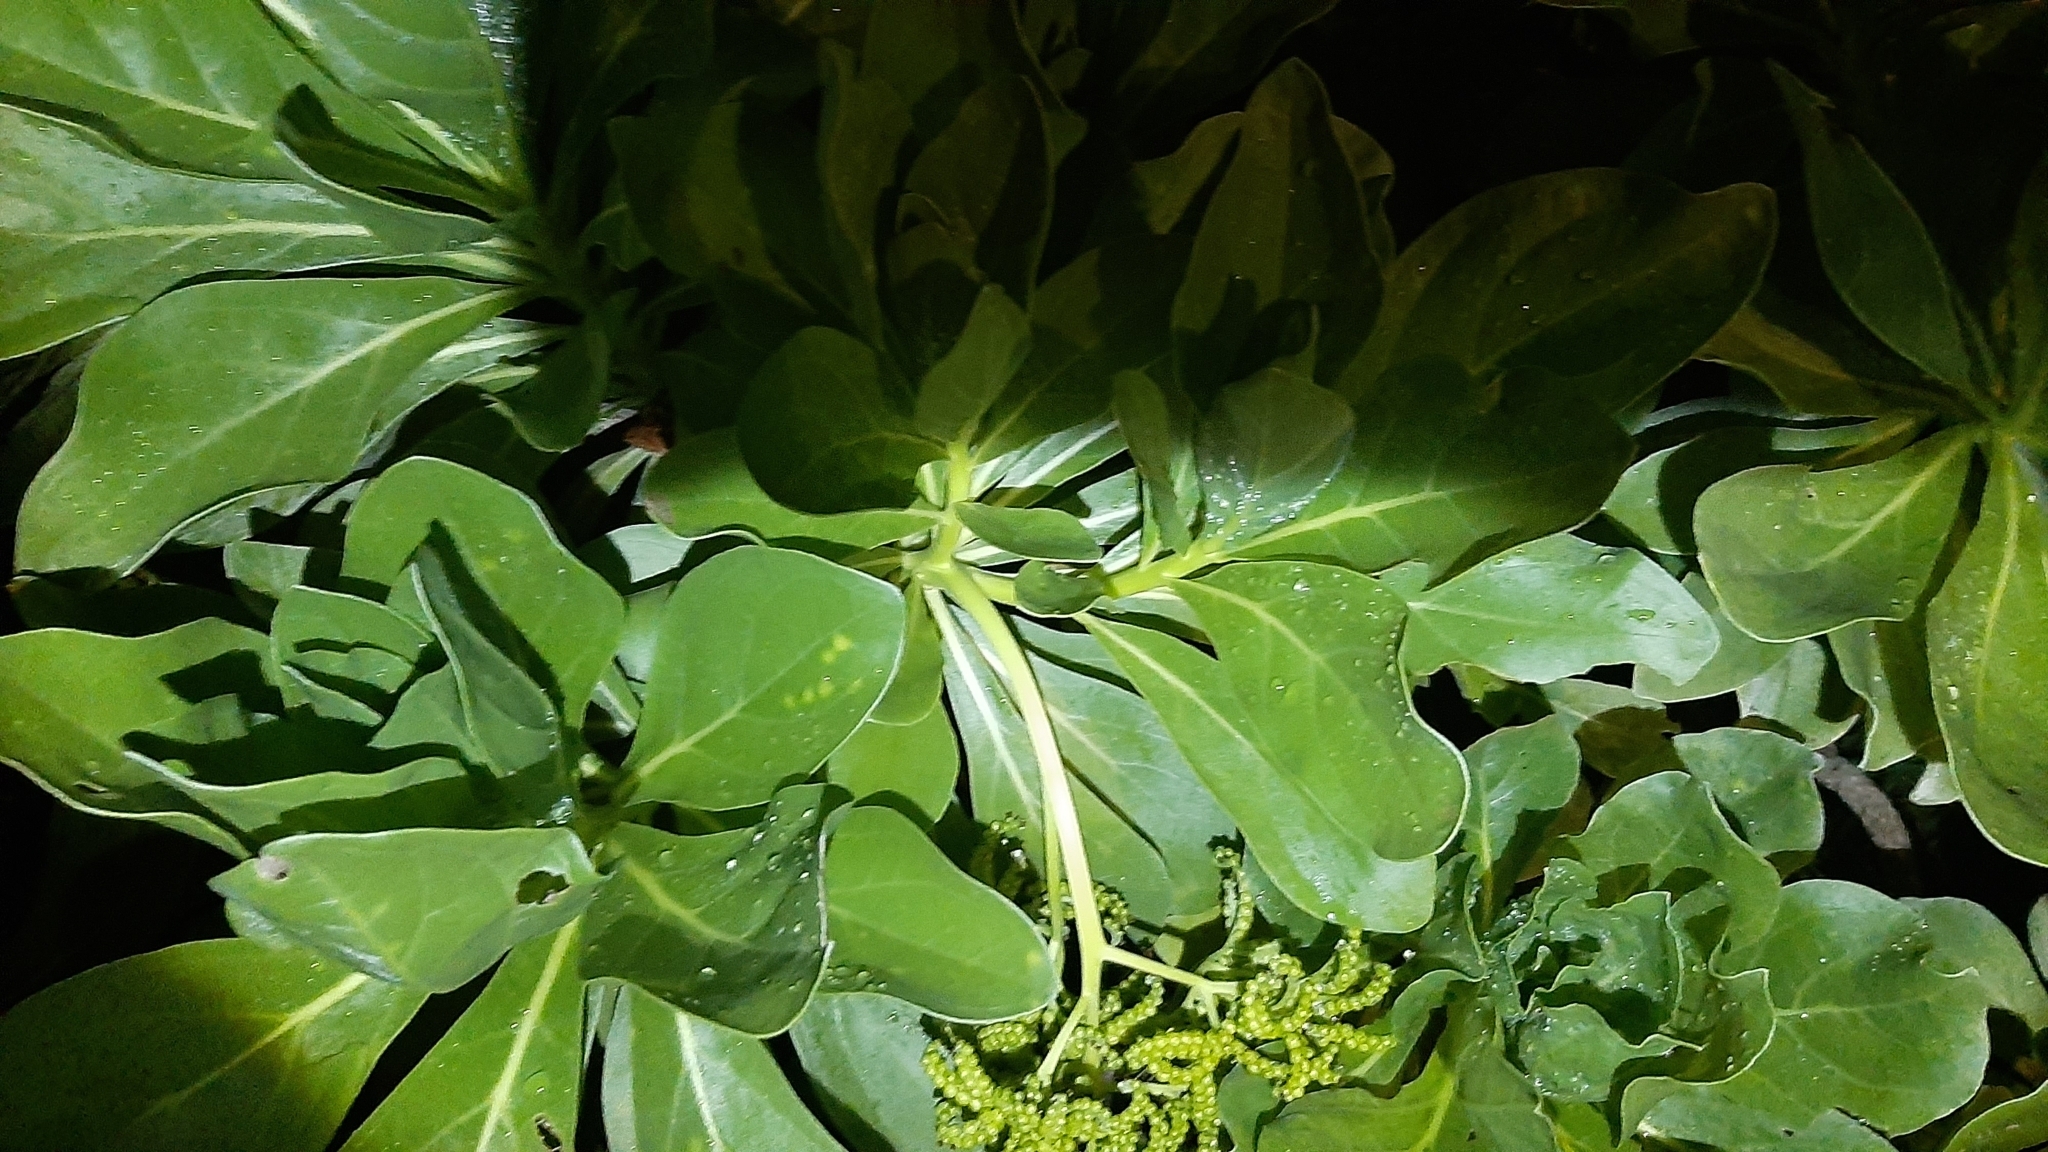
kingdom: Plantae
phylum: Tracheophyta
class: Magnoliopsida
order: Boraginales
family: Heliotropiaceae
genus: Heliotropium
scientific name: Heliotropium velutinum
